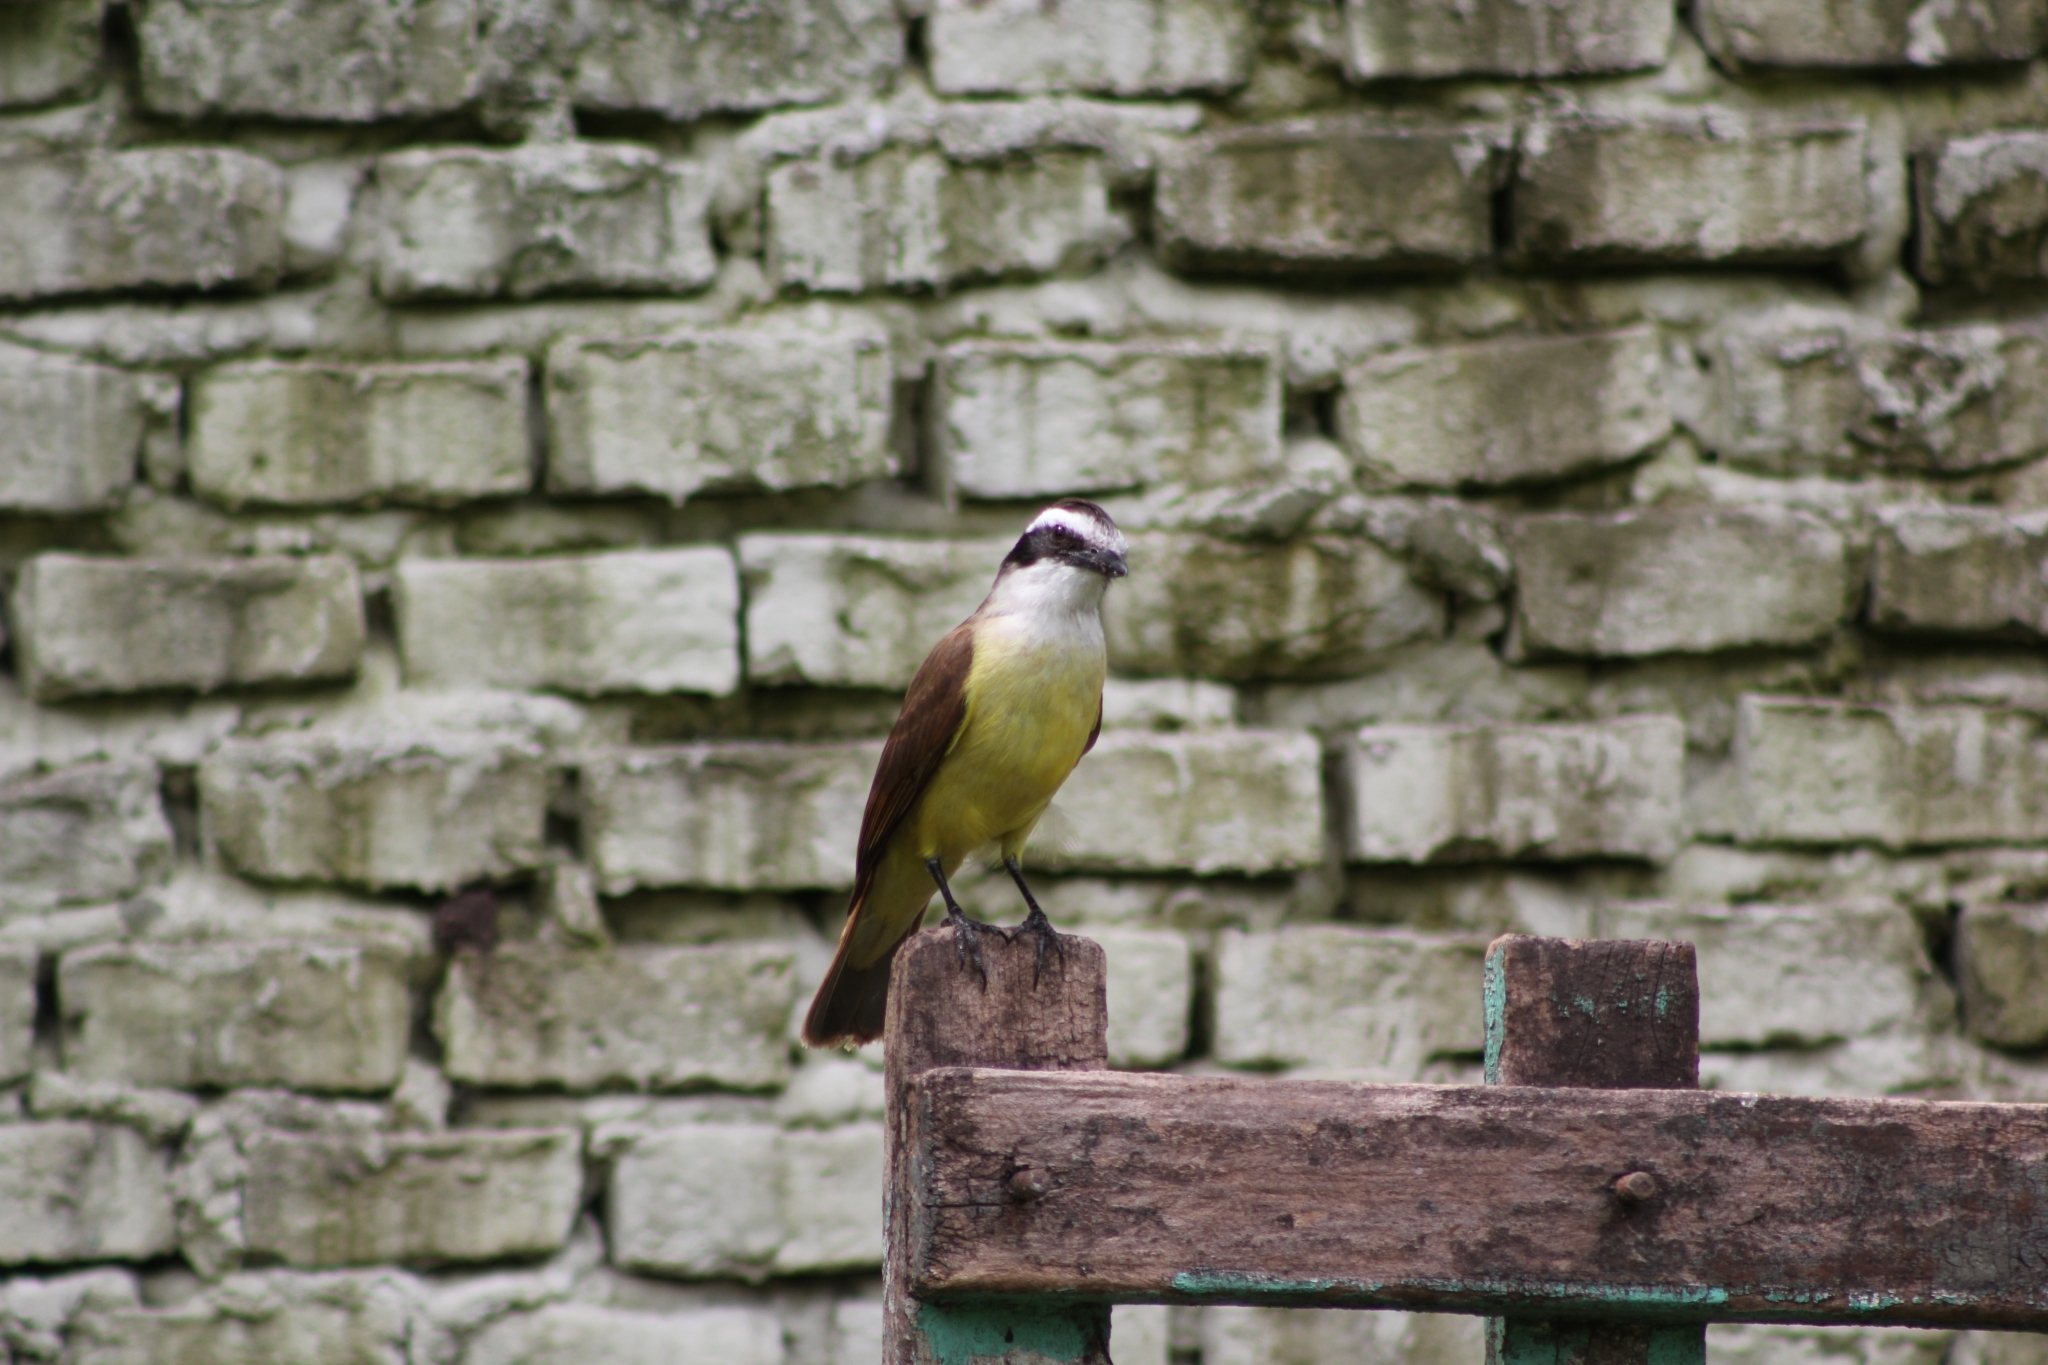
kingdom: Animalia
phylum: Chordata
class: Aves
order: Passeriformes
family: Tyrannidae
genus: Pitangus
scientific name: Pitangus sulphuratus
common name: Great kiskadee
